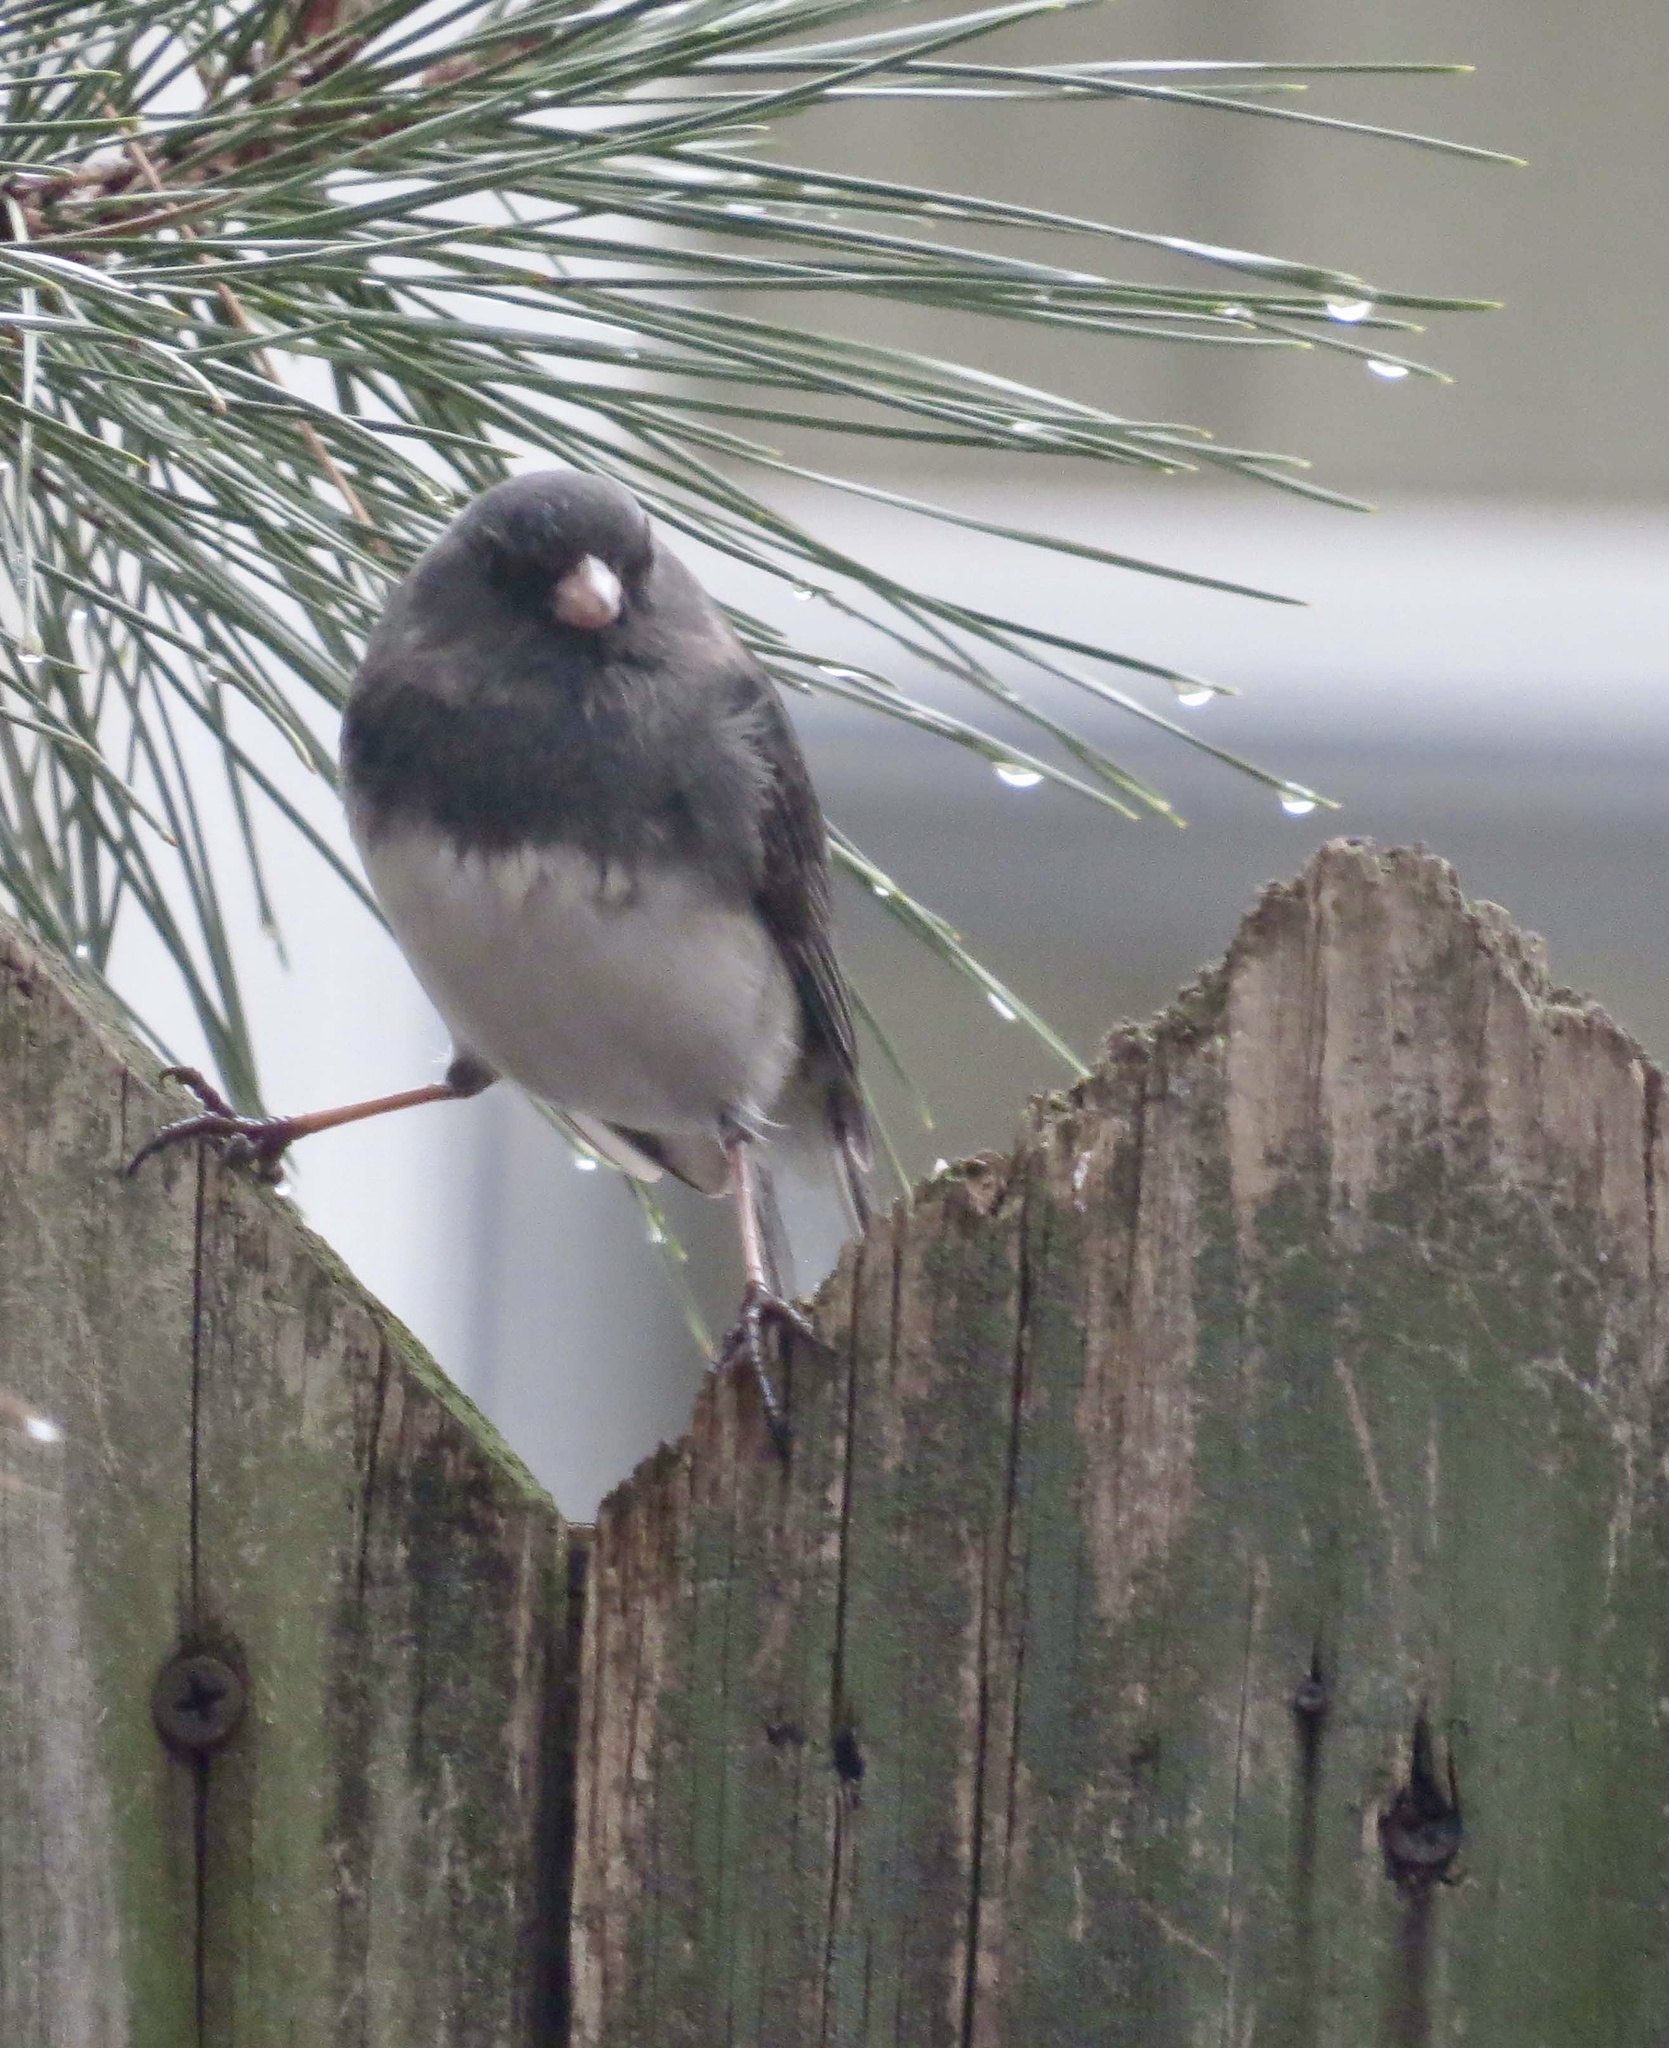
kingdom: Animalia
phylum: Chordata
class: Aves
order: Passeriformes
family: Passerellidae
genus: Junco
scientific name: Junco hyemalis
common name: Dark-eyed junco
